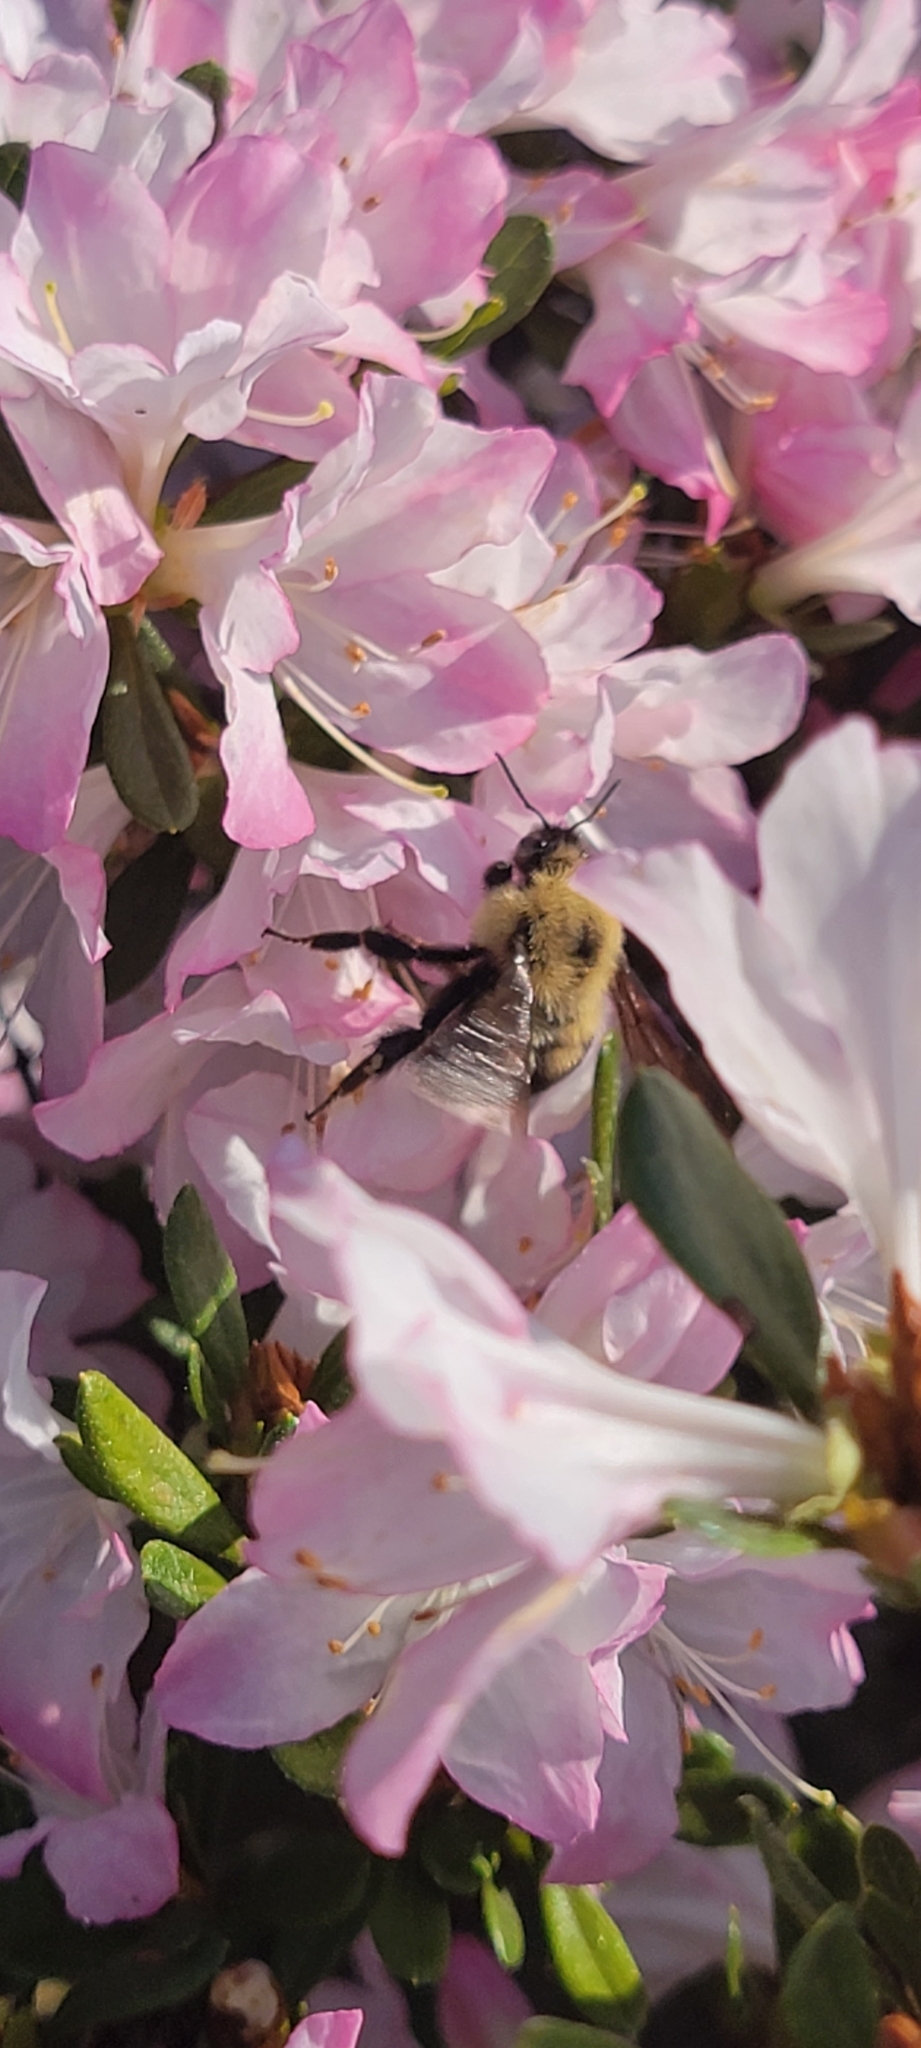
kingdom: Animalia
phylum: Arthropoda
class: Insecta
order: Hymenoptera
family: Apidae
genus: Bombus
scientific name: Bombus bimaculatus
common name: Two-spotted bumble bee
